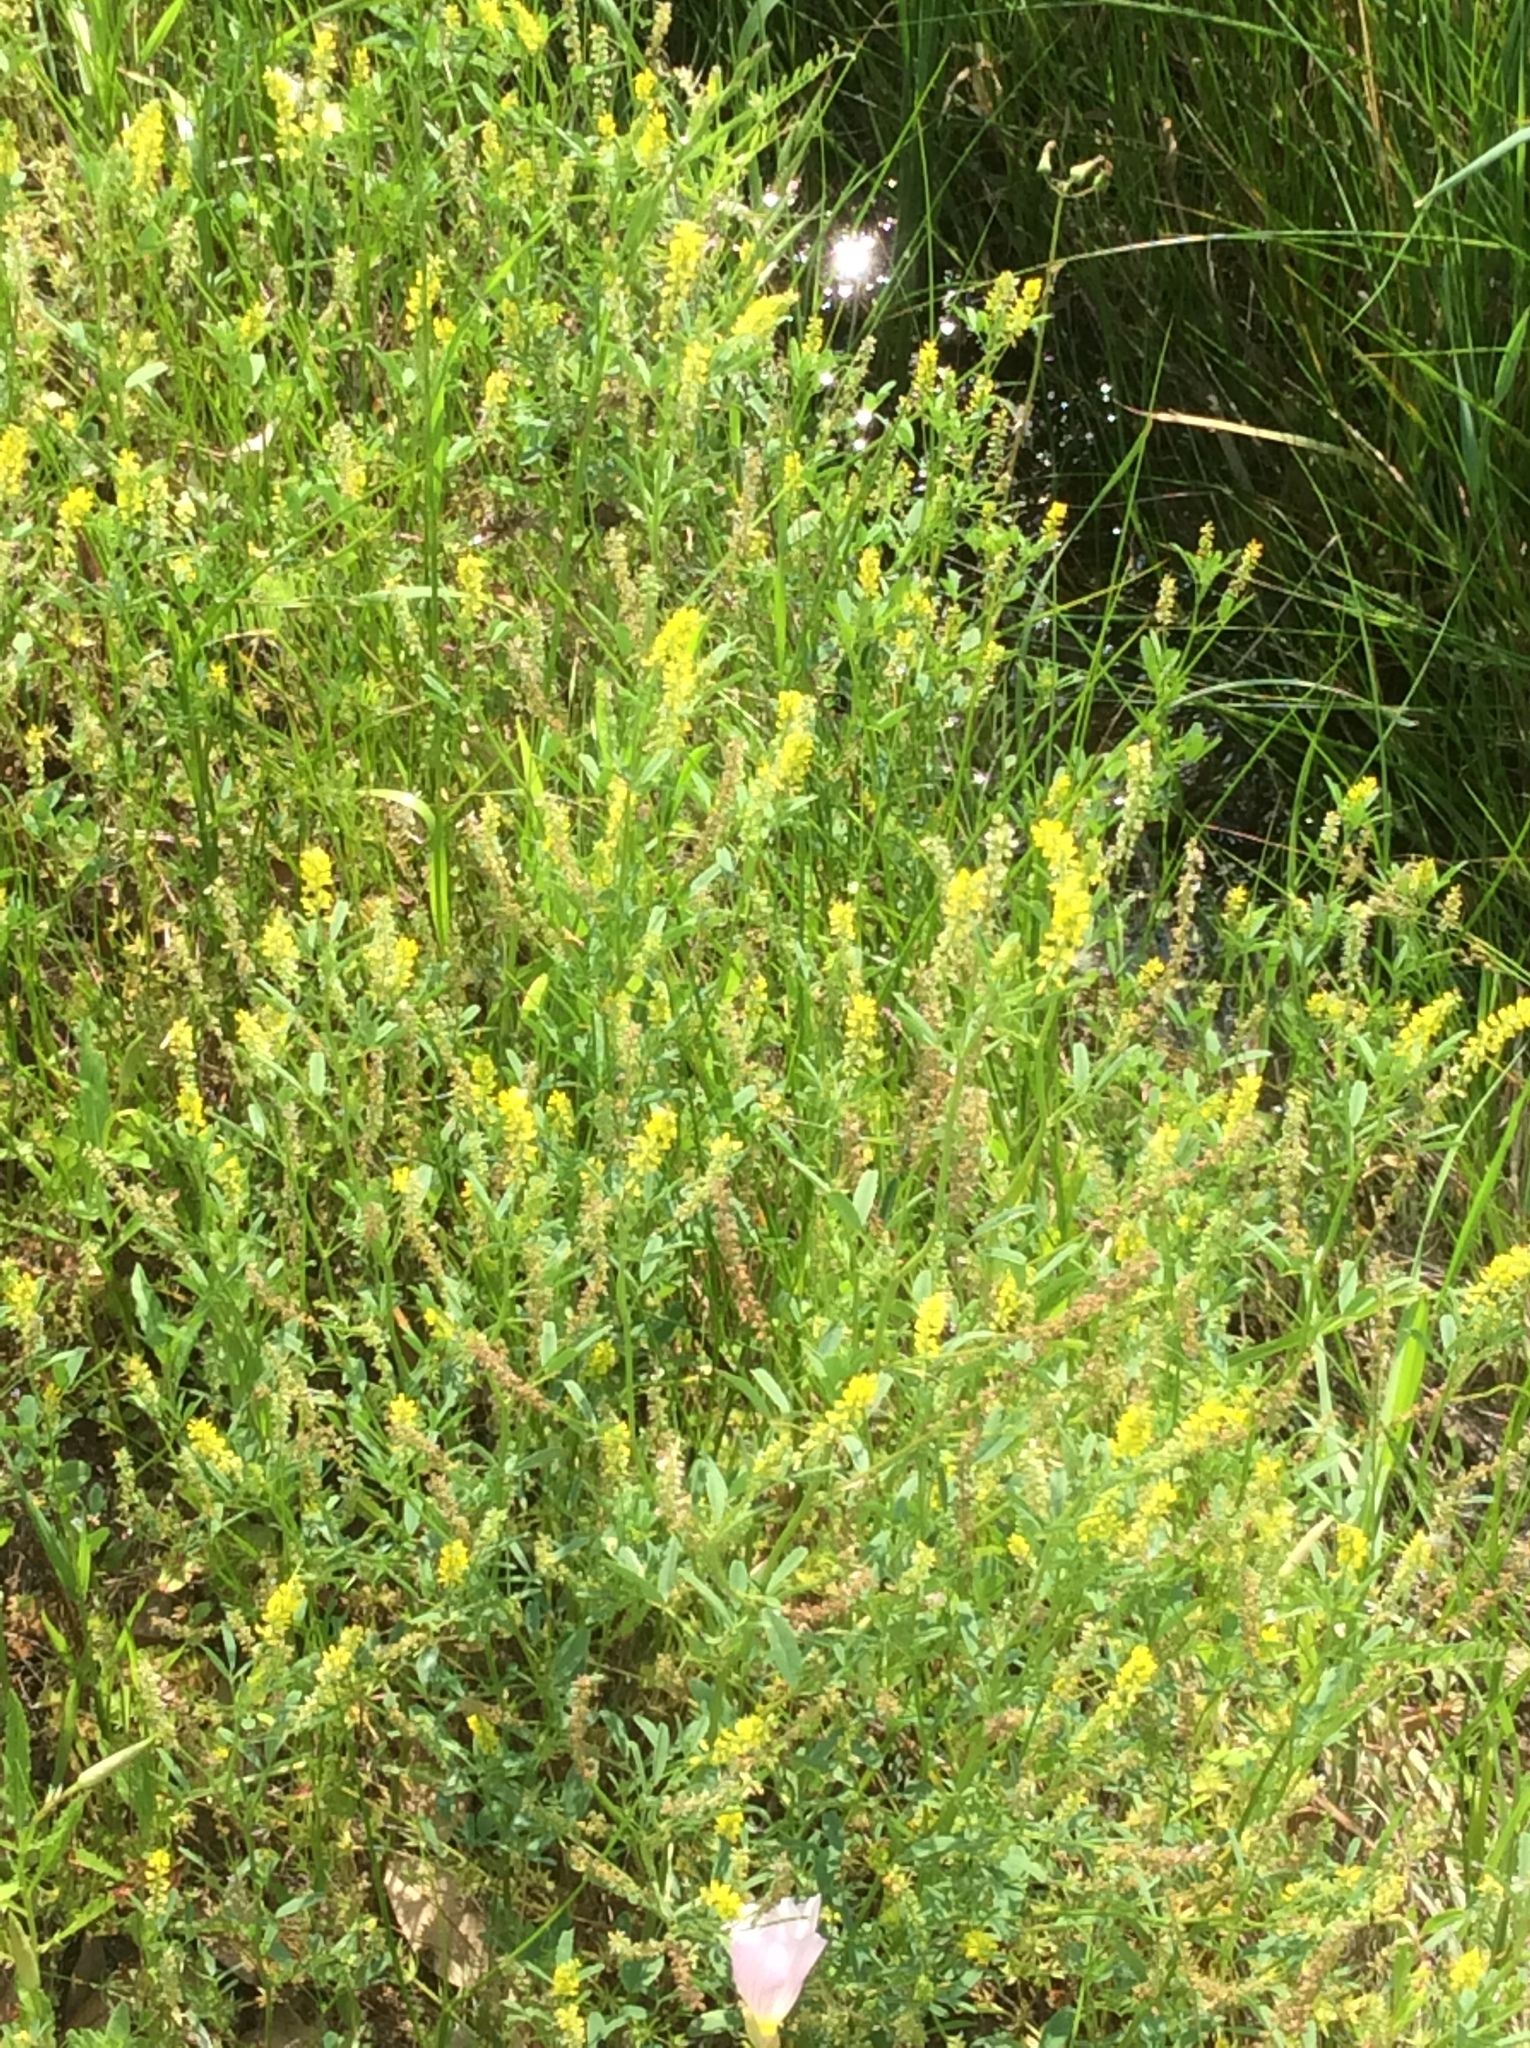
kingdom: Plantae
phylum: Tracheophyta
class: Magnoliopsida
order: Fabales
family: Fabaceae
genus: Melilotus
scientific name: Melilotus indicus
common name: Small melilot
